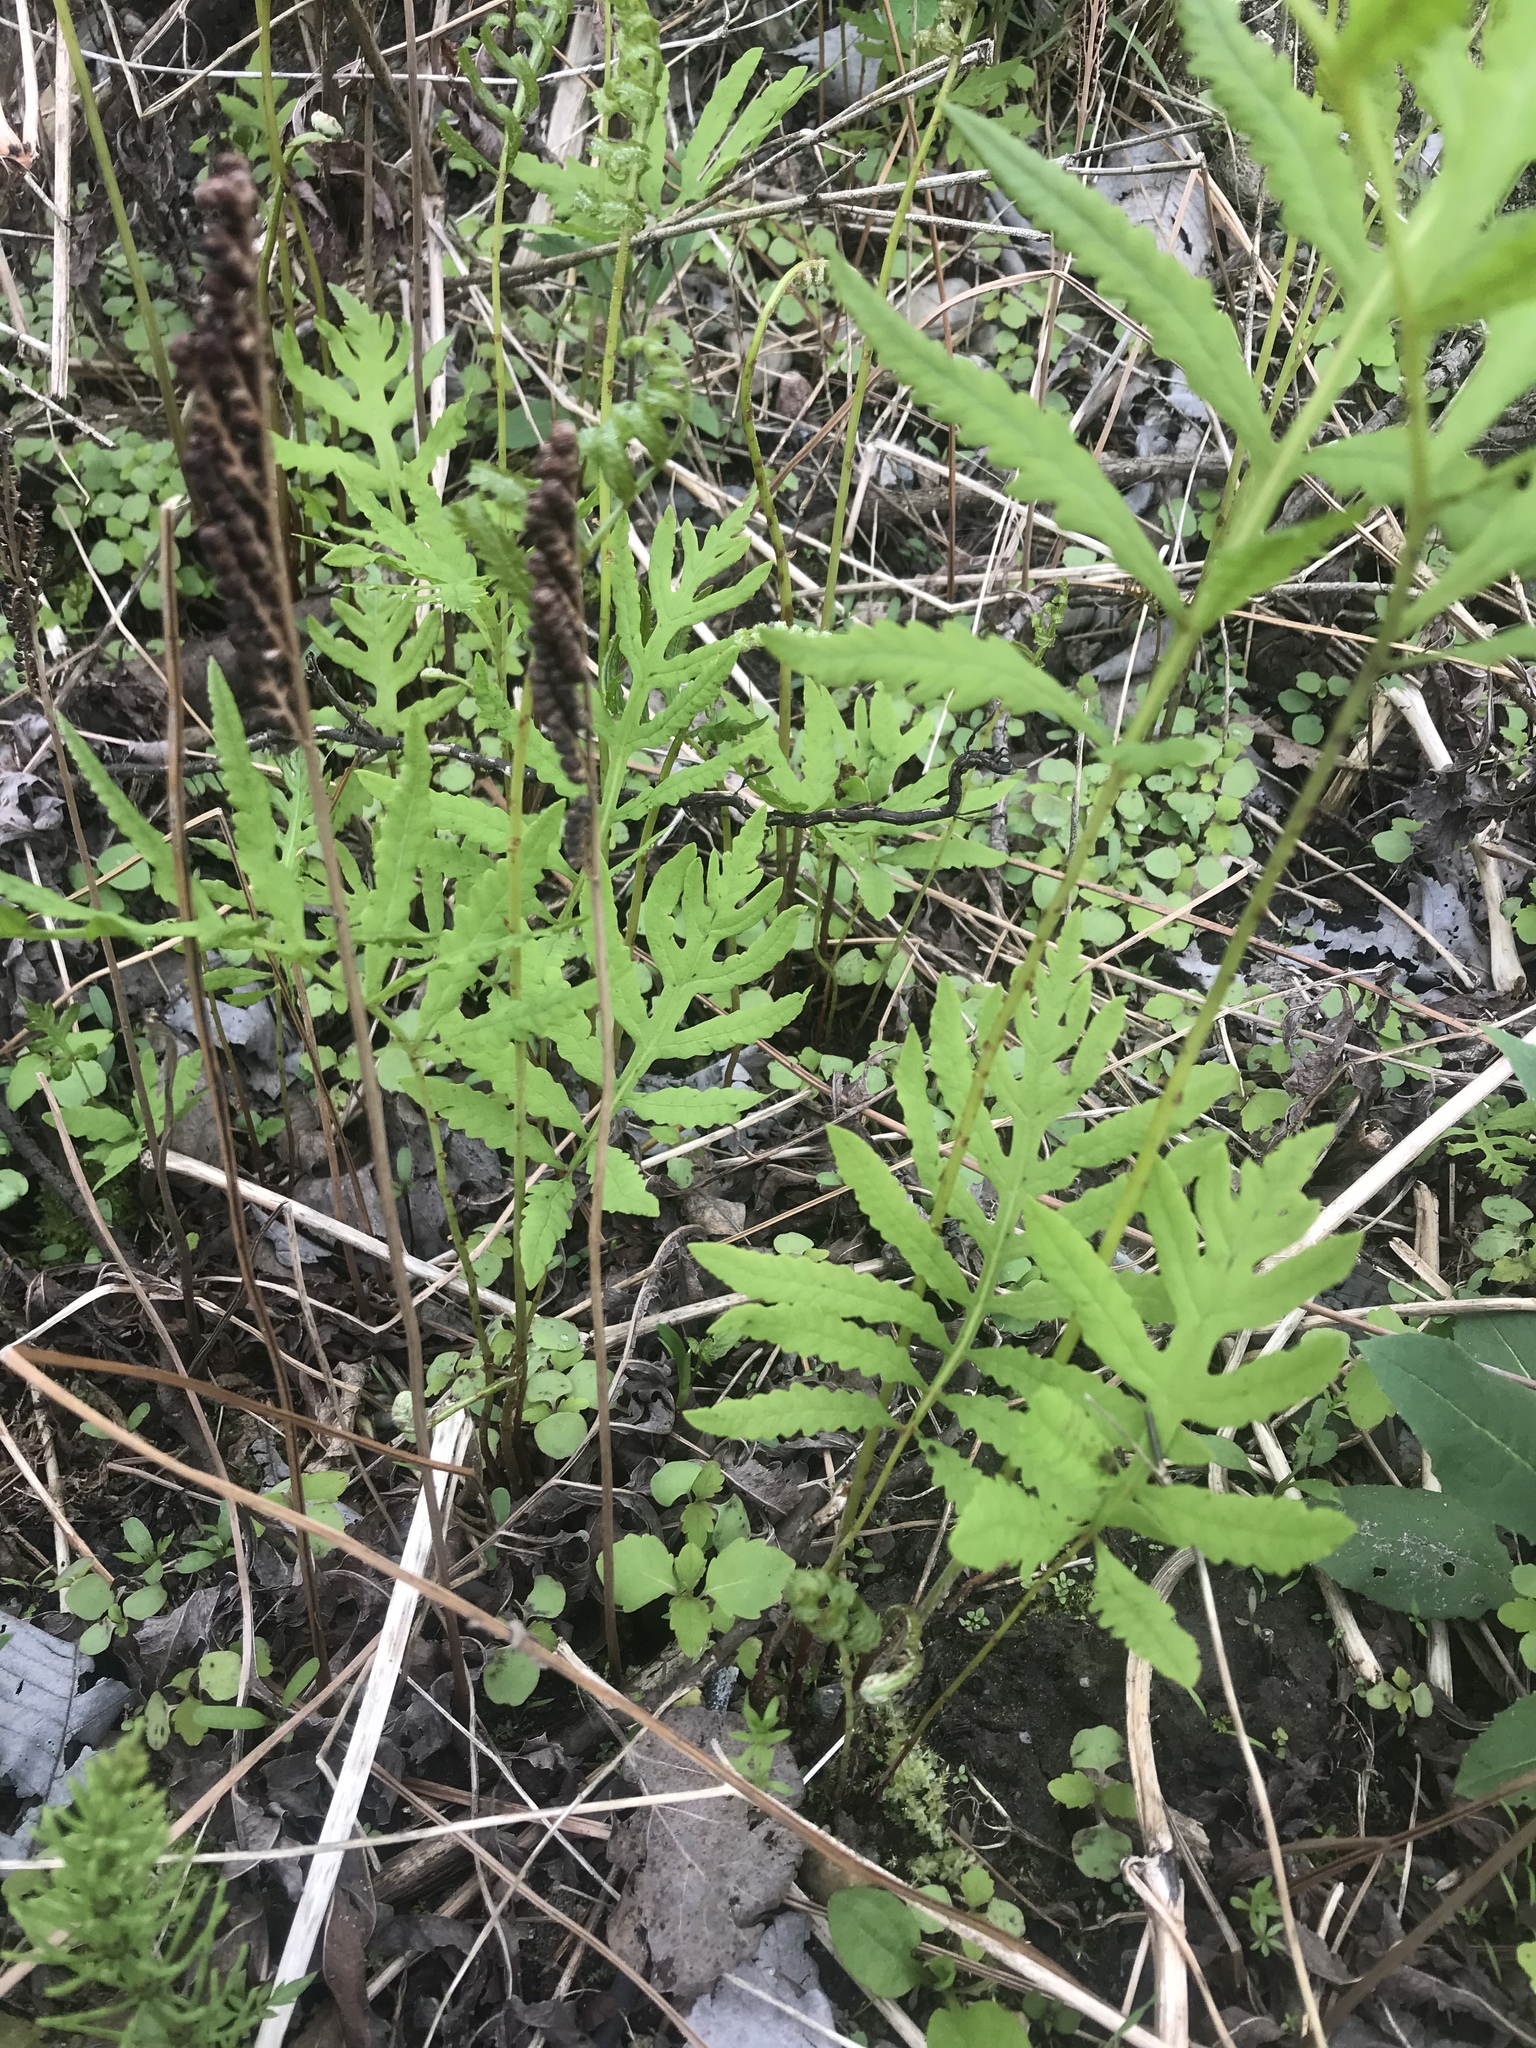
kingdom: Plantae
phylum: Tracheophyta
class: Polypodiopsida
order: Polypodiales
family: Onocleaceae
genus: Onoclea
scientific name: Onoclea sensibilis
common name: Sensitive fern
